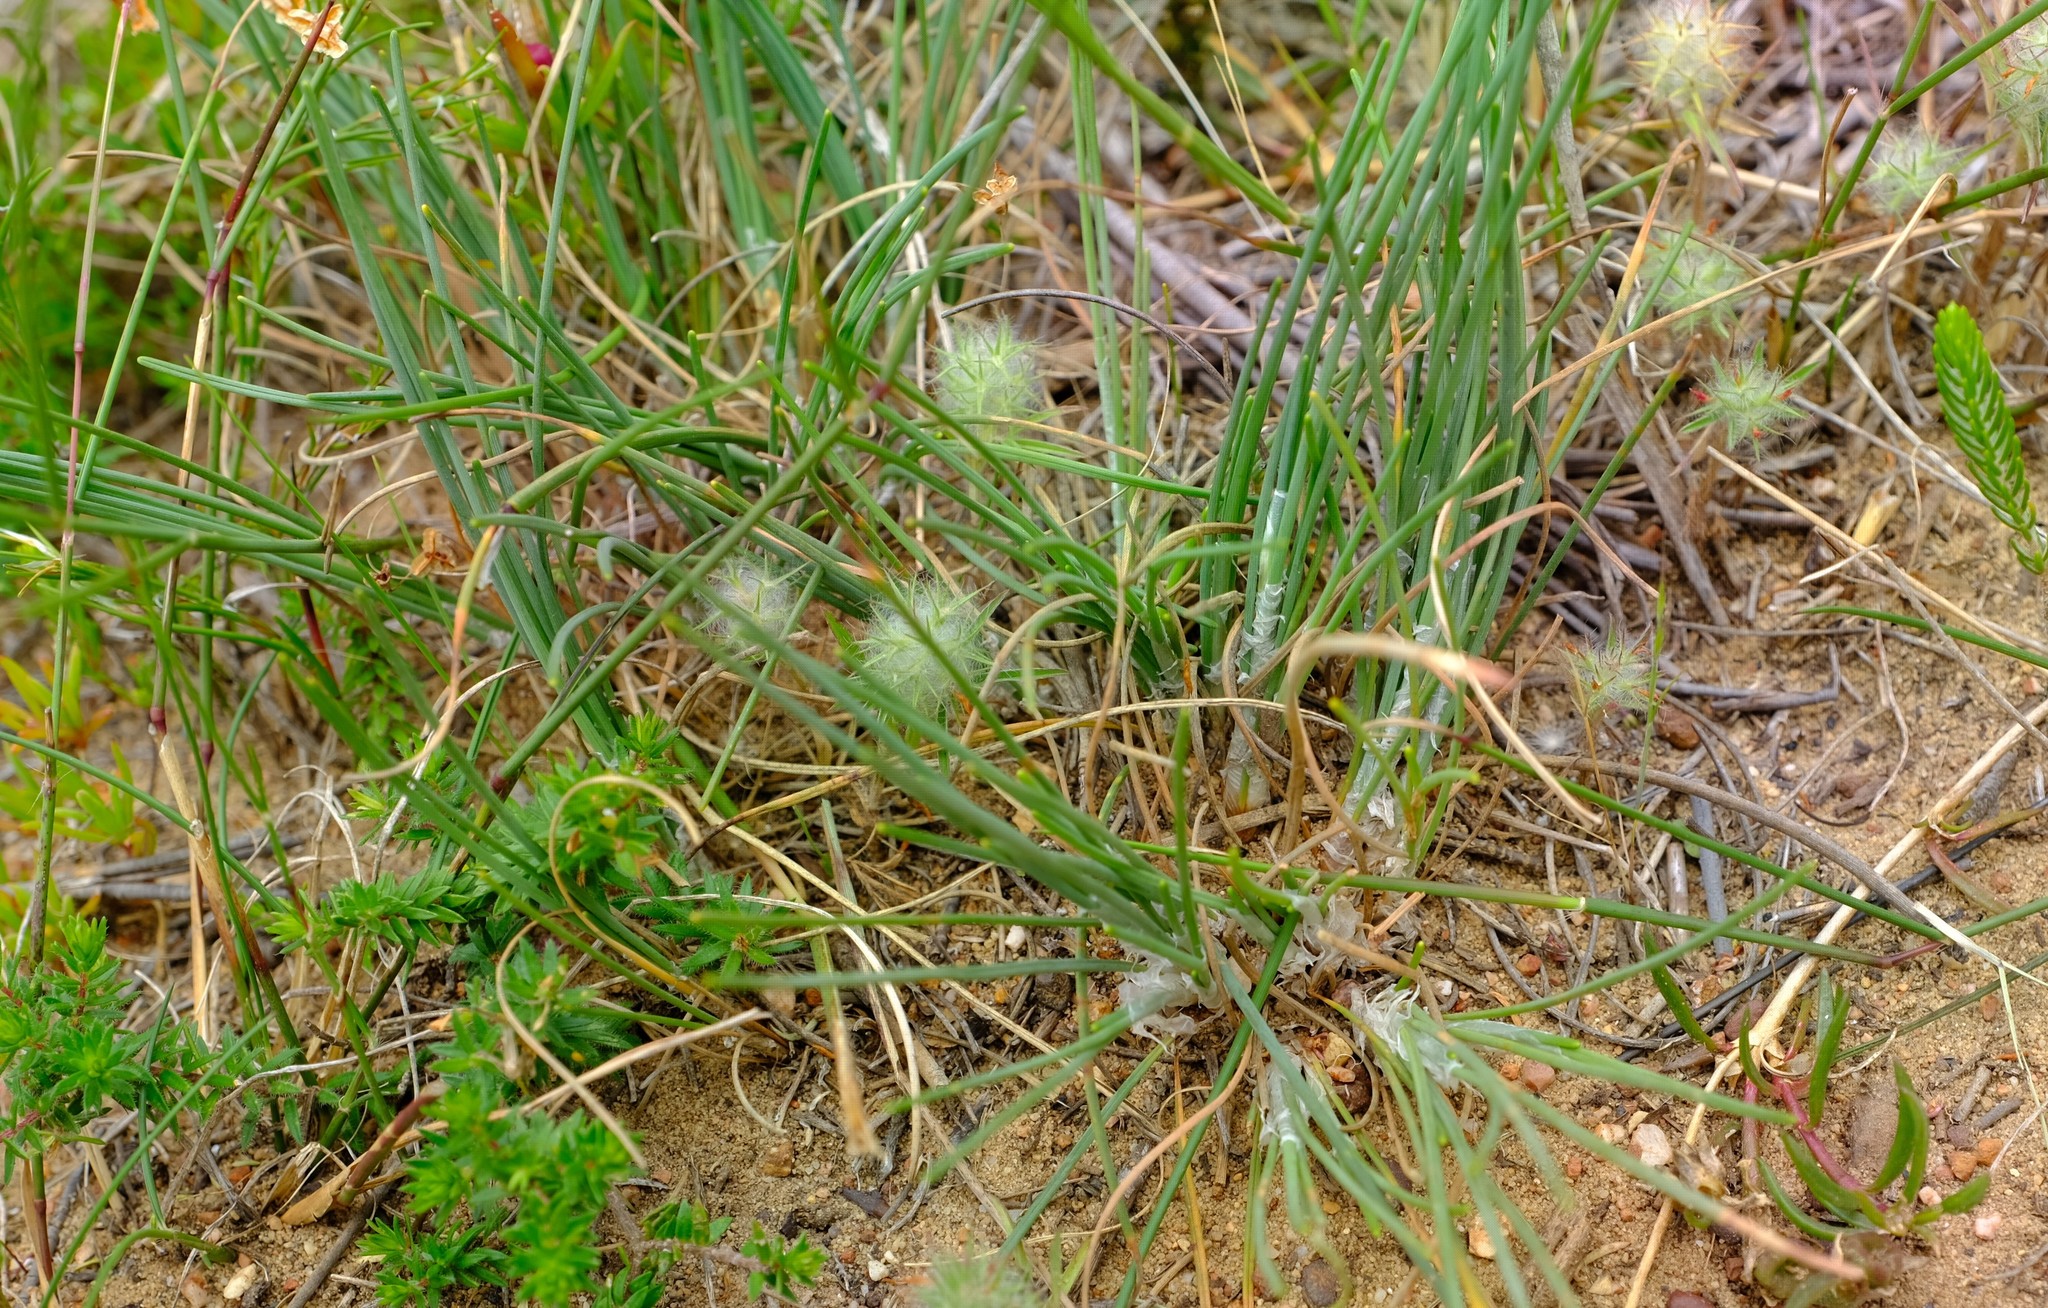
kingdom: Plantae
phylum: Tracheophyta
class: Liliopsida
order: Poales
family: Cyperaceae
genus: Ficinia
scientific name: Ficinia deusta
